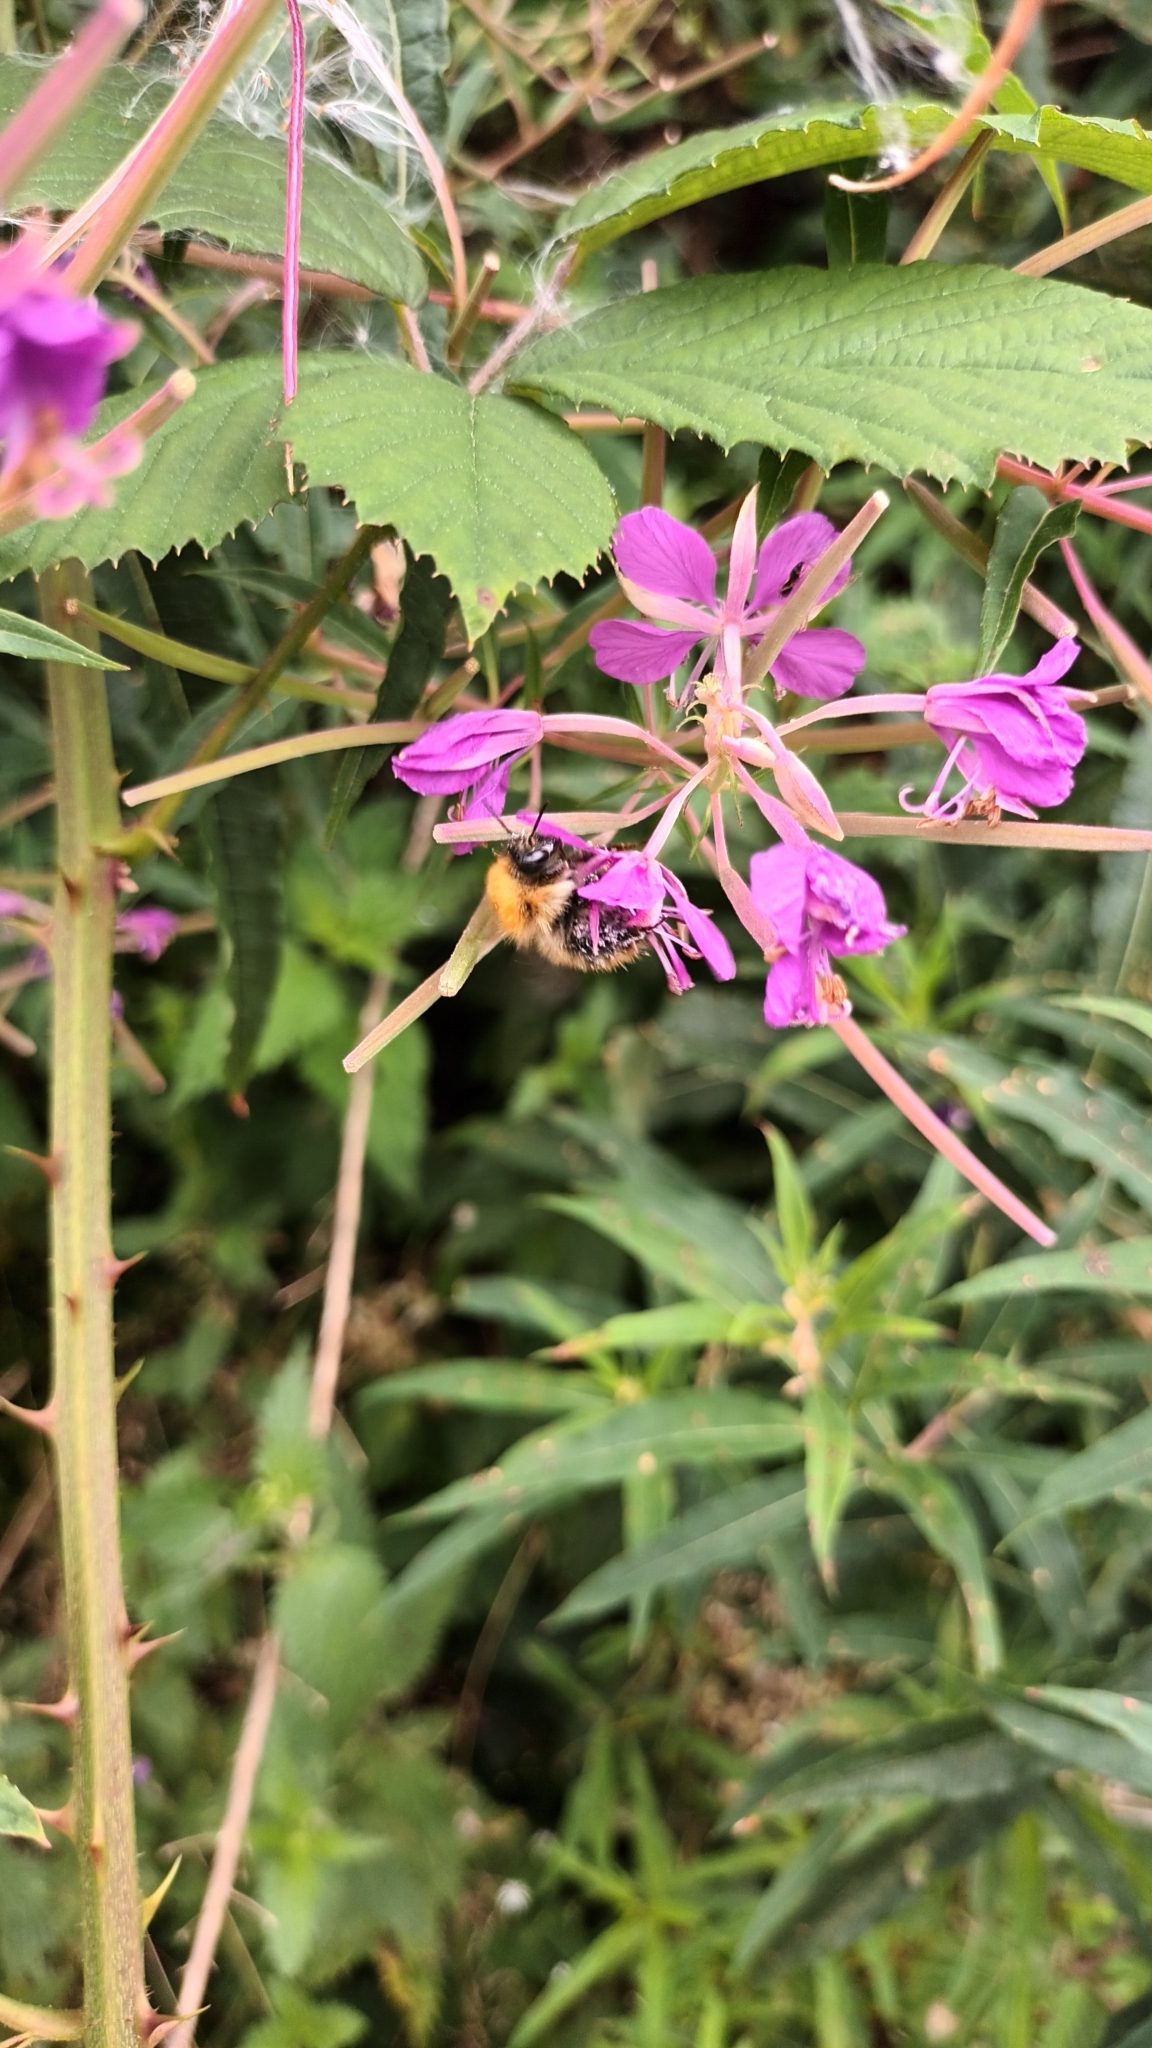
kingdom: Animalia
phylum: Arthropoda
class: Insecta
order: Hymenoptera
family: Apidae
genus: Bombus
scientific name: Bombus pascuorum
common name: Common carder bee
